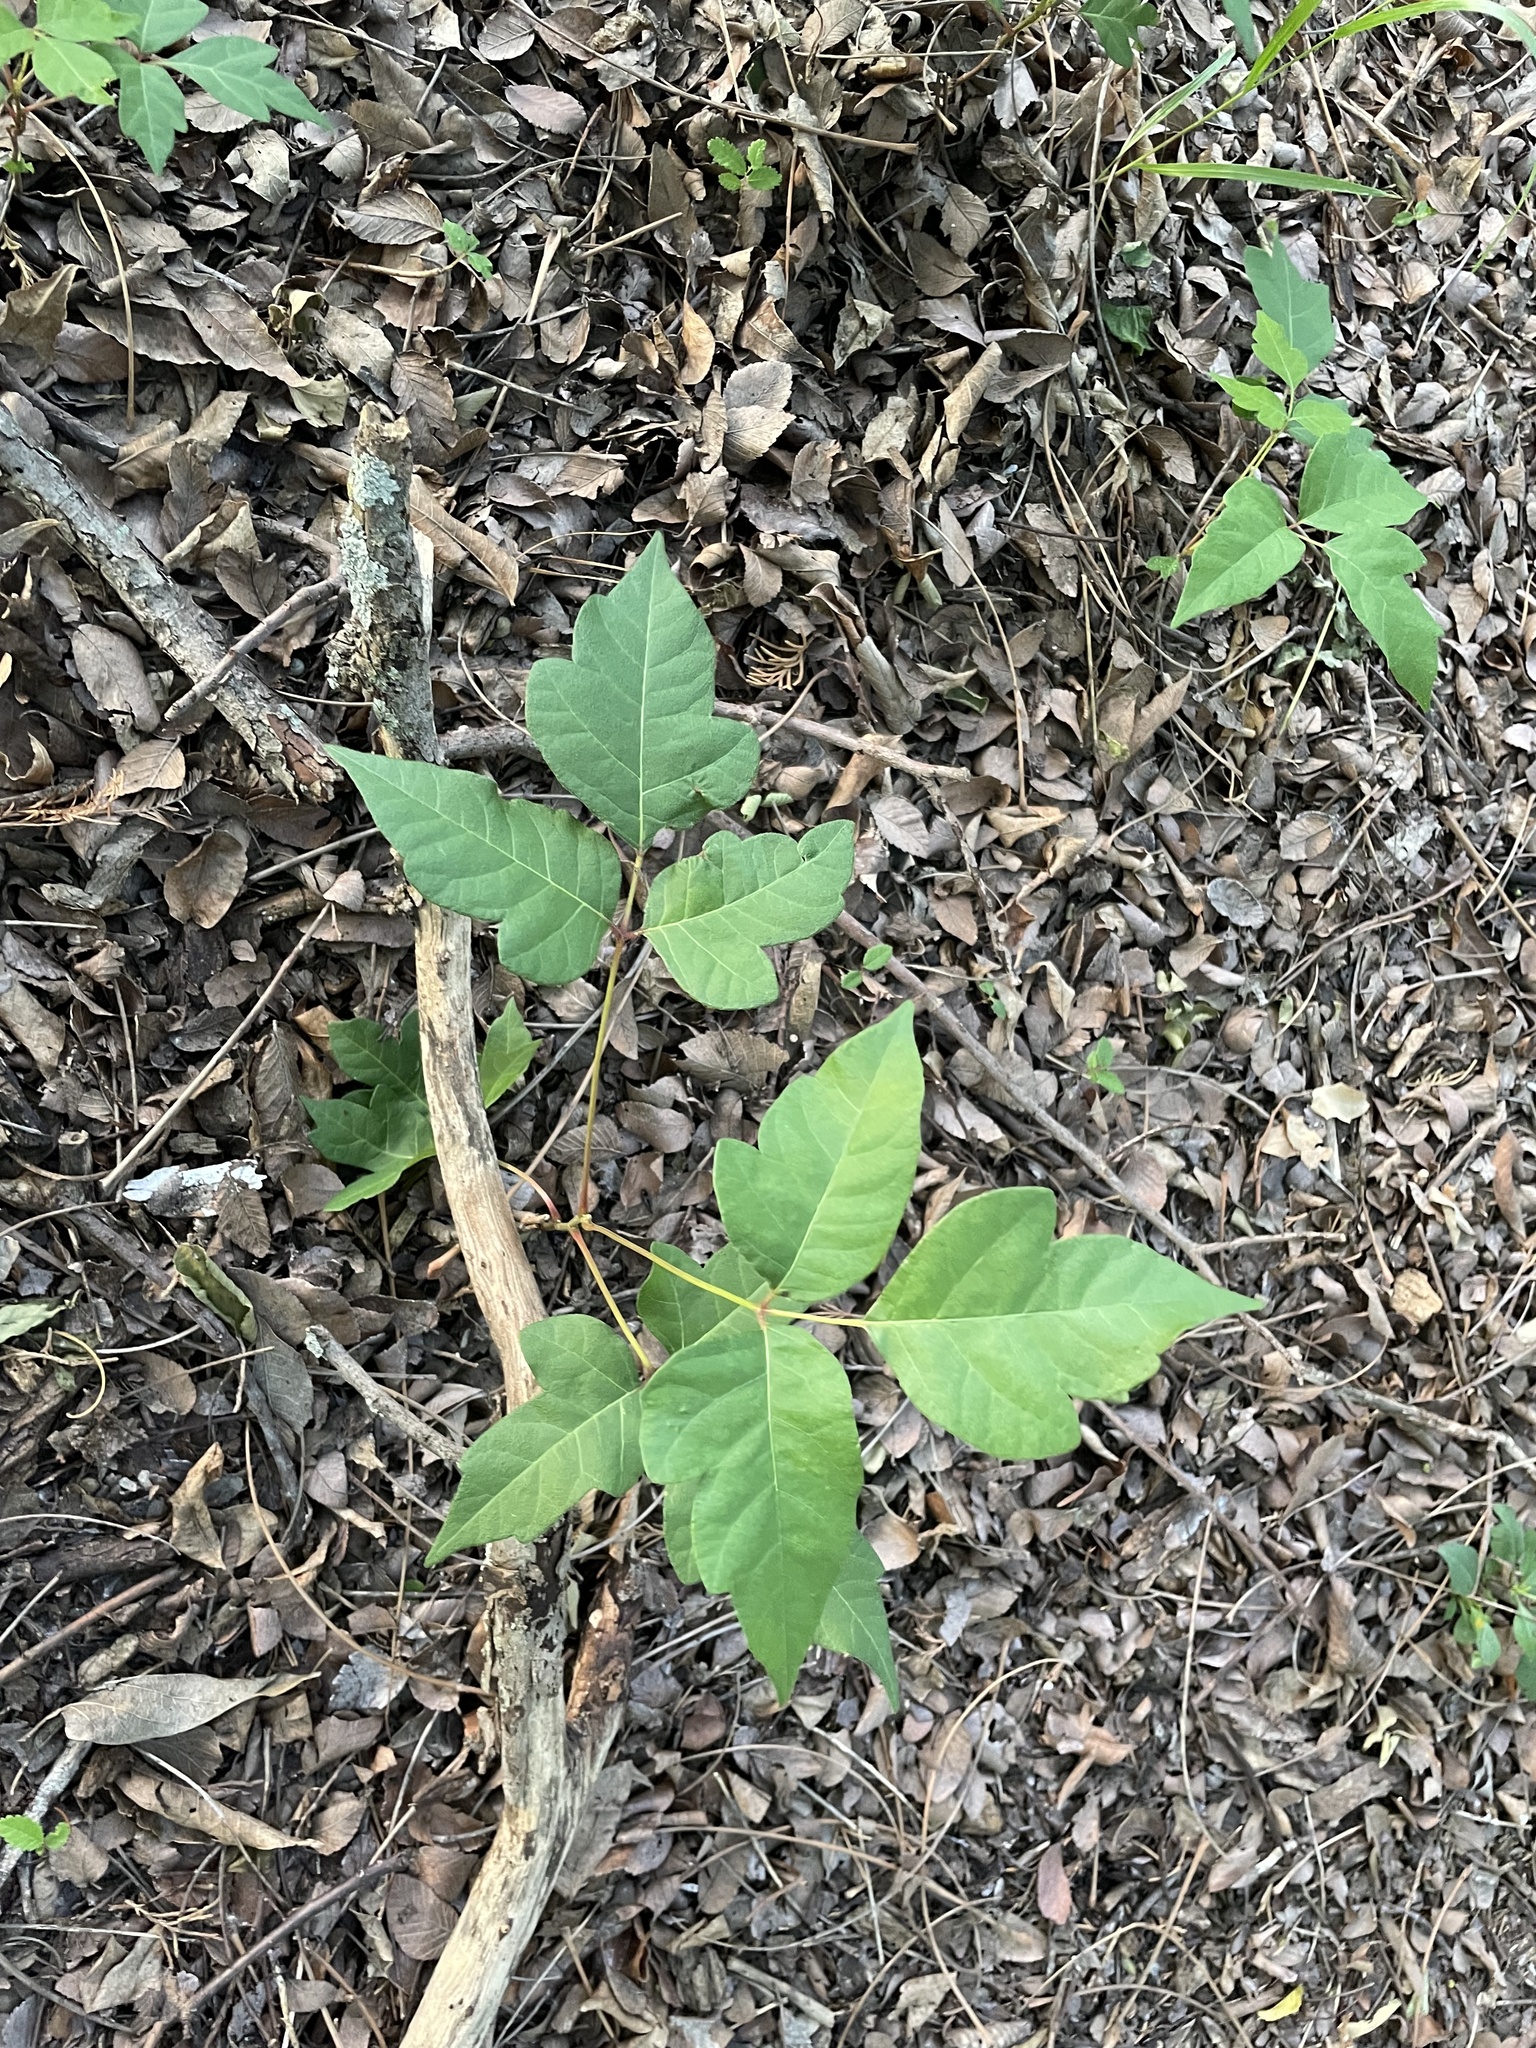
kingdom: Plantae
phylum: Tracheophyta
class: Magnoliopsida
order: Sapindales
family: Anacardiaceae
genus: Toxicodendron
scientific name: Toxicodendron radicans
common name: Poison ivy
